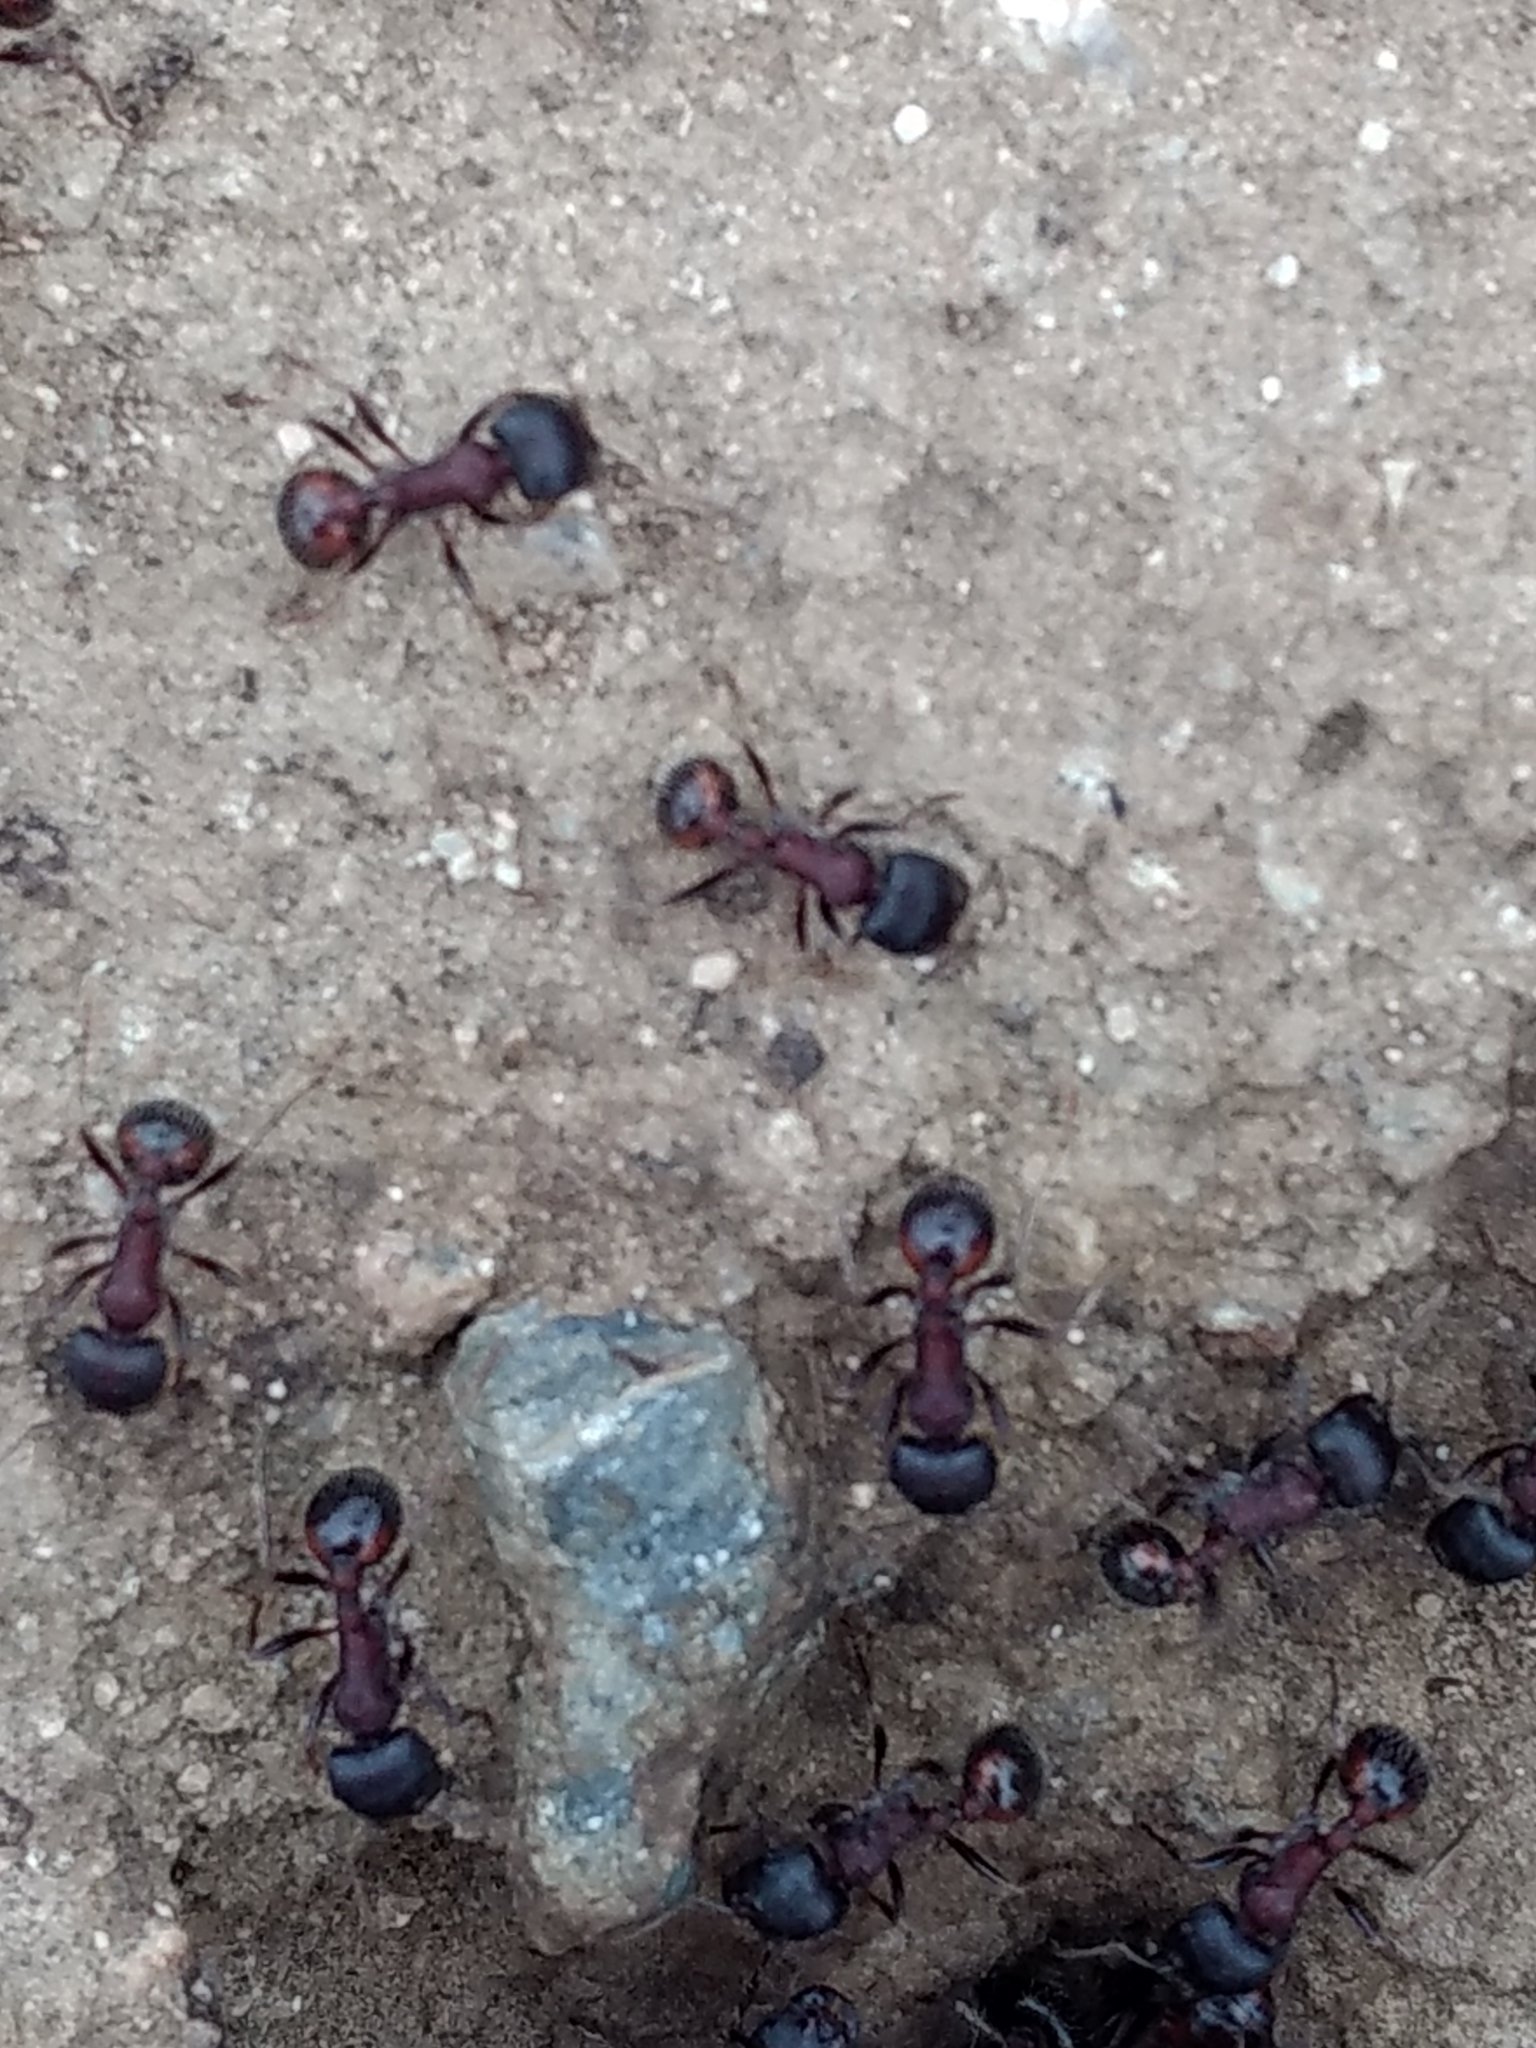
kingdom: Animalia
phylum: Arthropoda
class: Insecta
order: Hymenoptera
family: Formicidae
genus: Pogonomyrmex
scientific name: Pogonomyrmex rugosus
